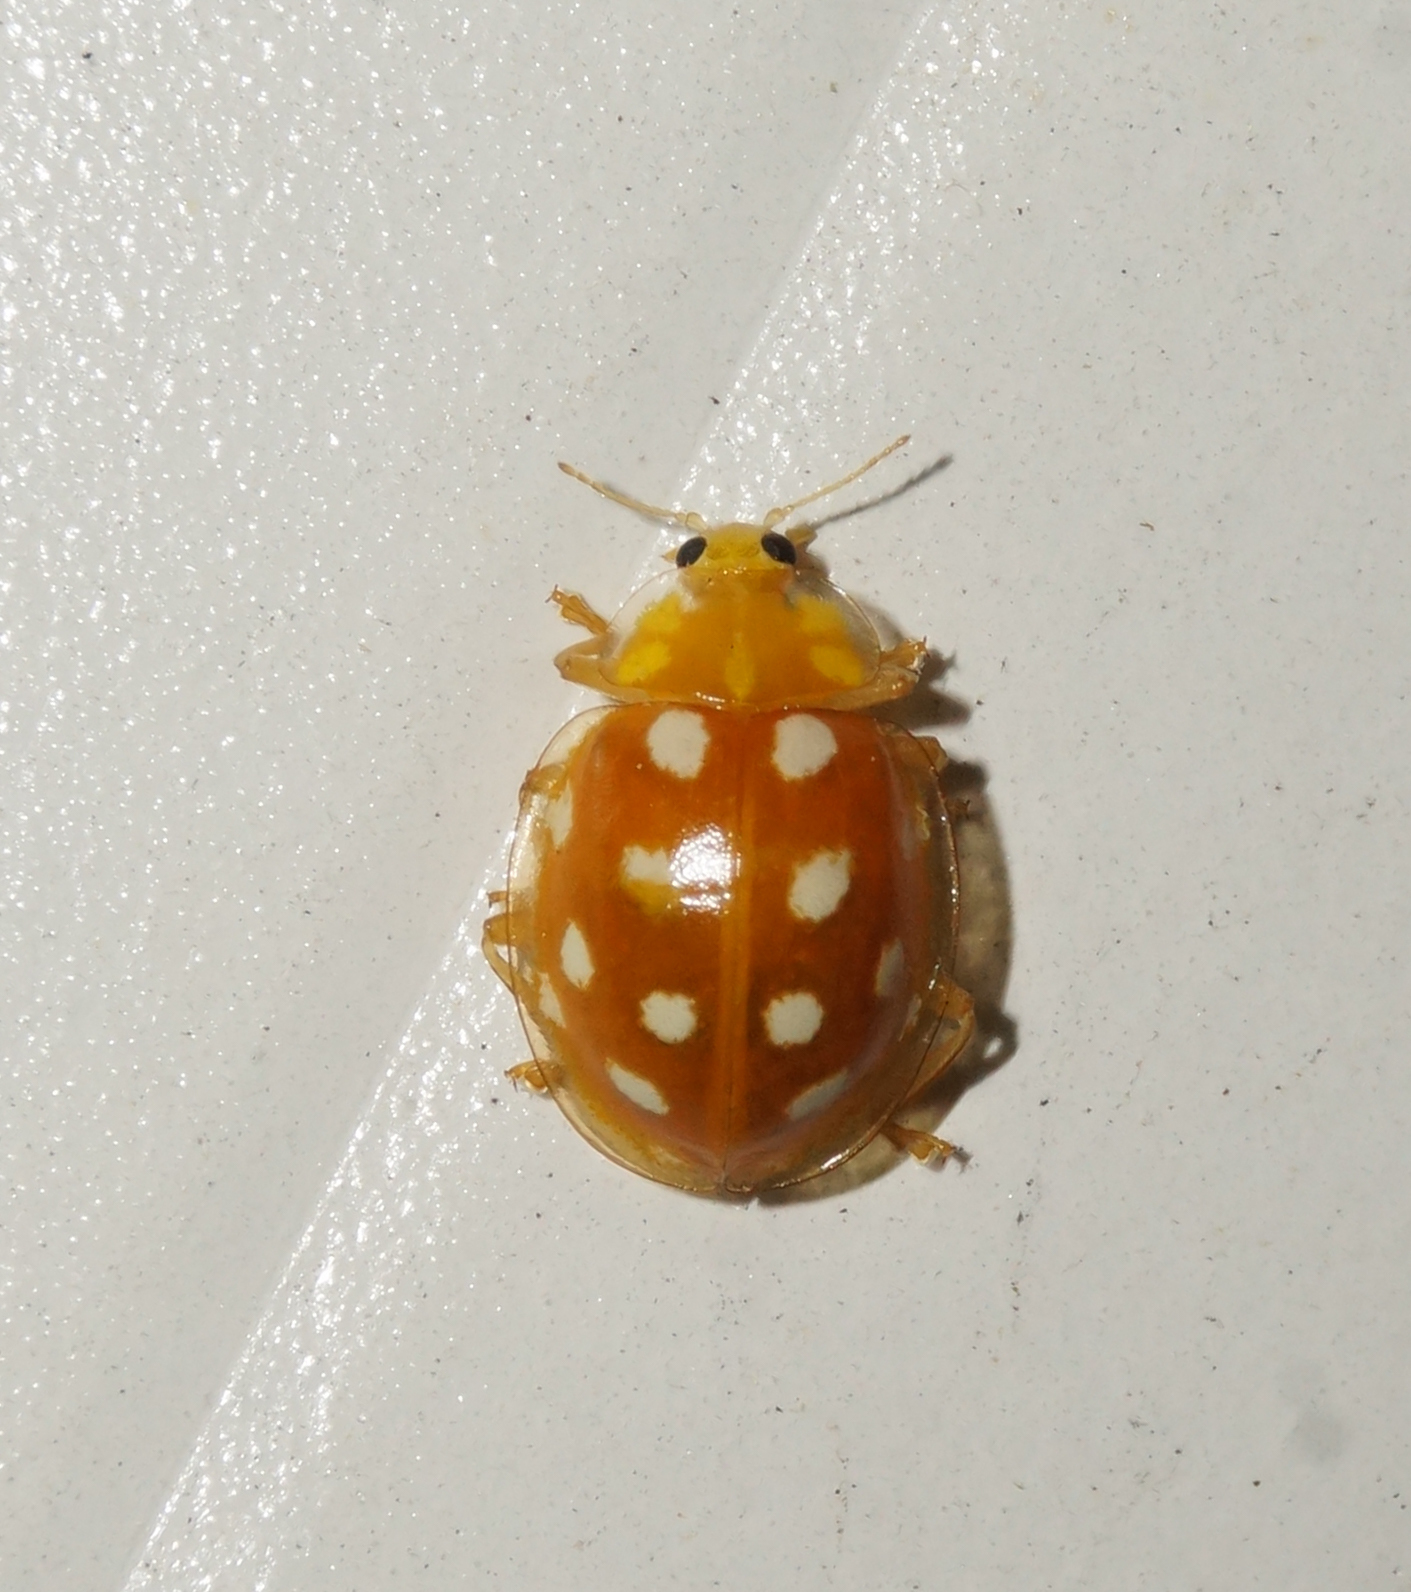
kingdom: Animalia
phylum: Arthropoda
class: Insecta
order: Coleoptera
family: Coccinellidae
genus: Halyzia
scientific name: Halyzia sedecimguttata
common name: Orange ladybird
